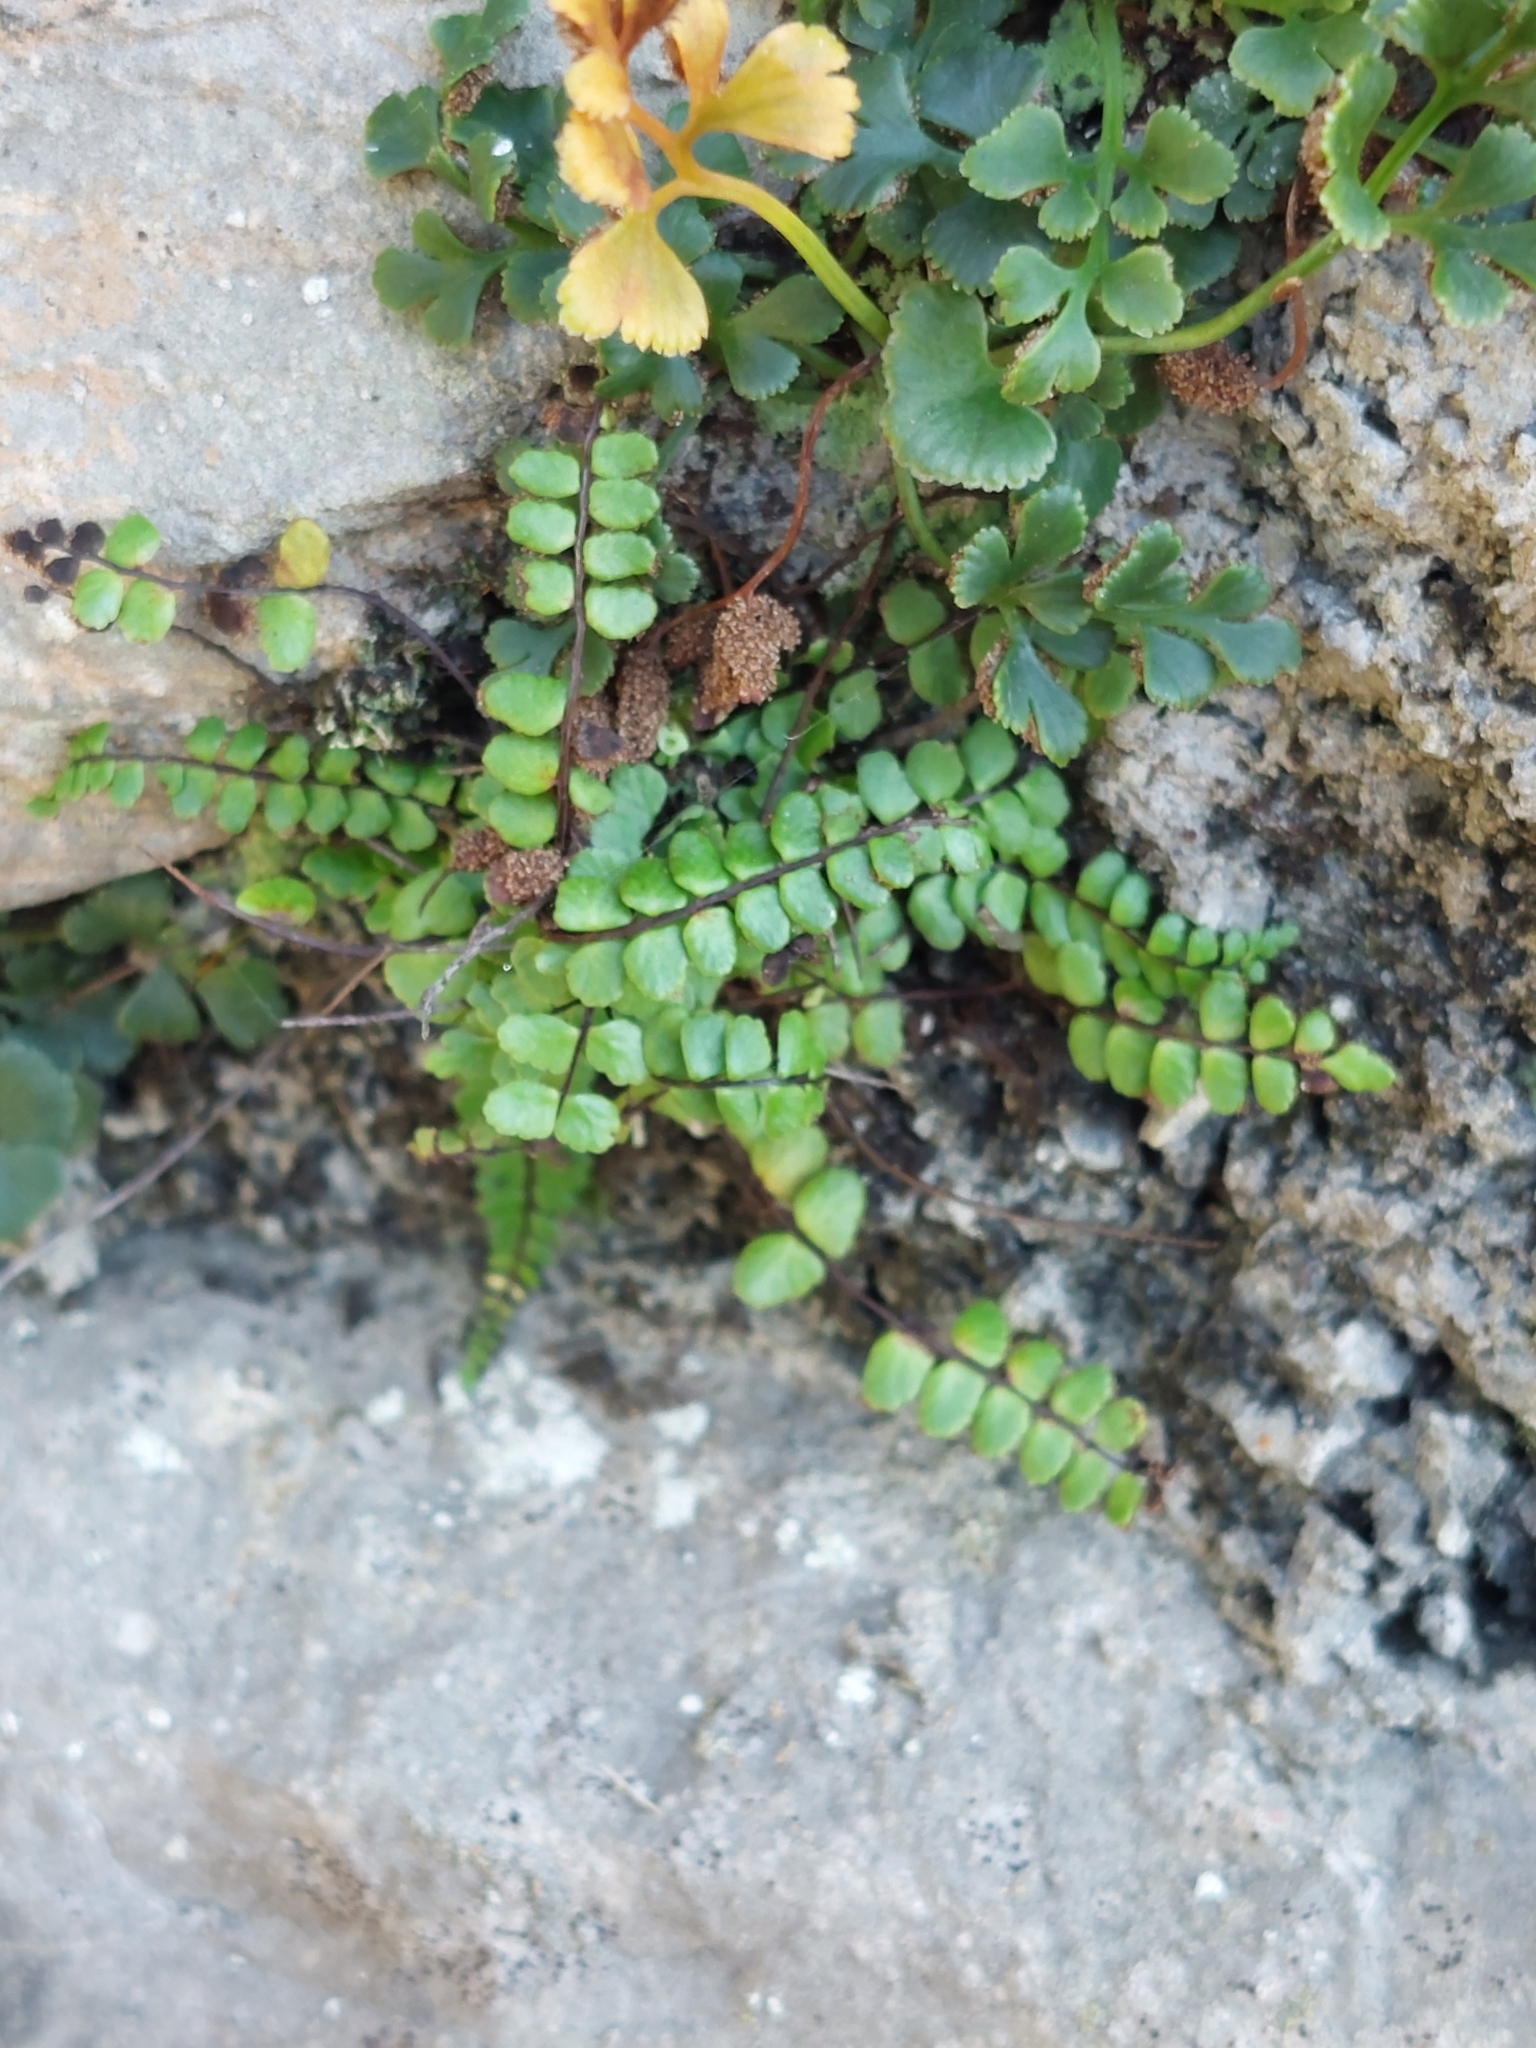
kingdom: Plantae
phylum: Tracheophyta
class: Polypodiopsida
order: Polypodiales
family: Aspleniaceae
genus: Asplenium
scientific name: Asplenium trichomanes
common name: Maidenhair spleenwort
